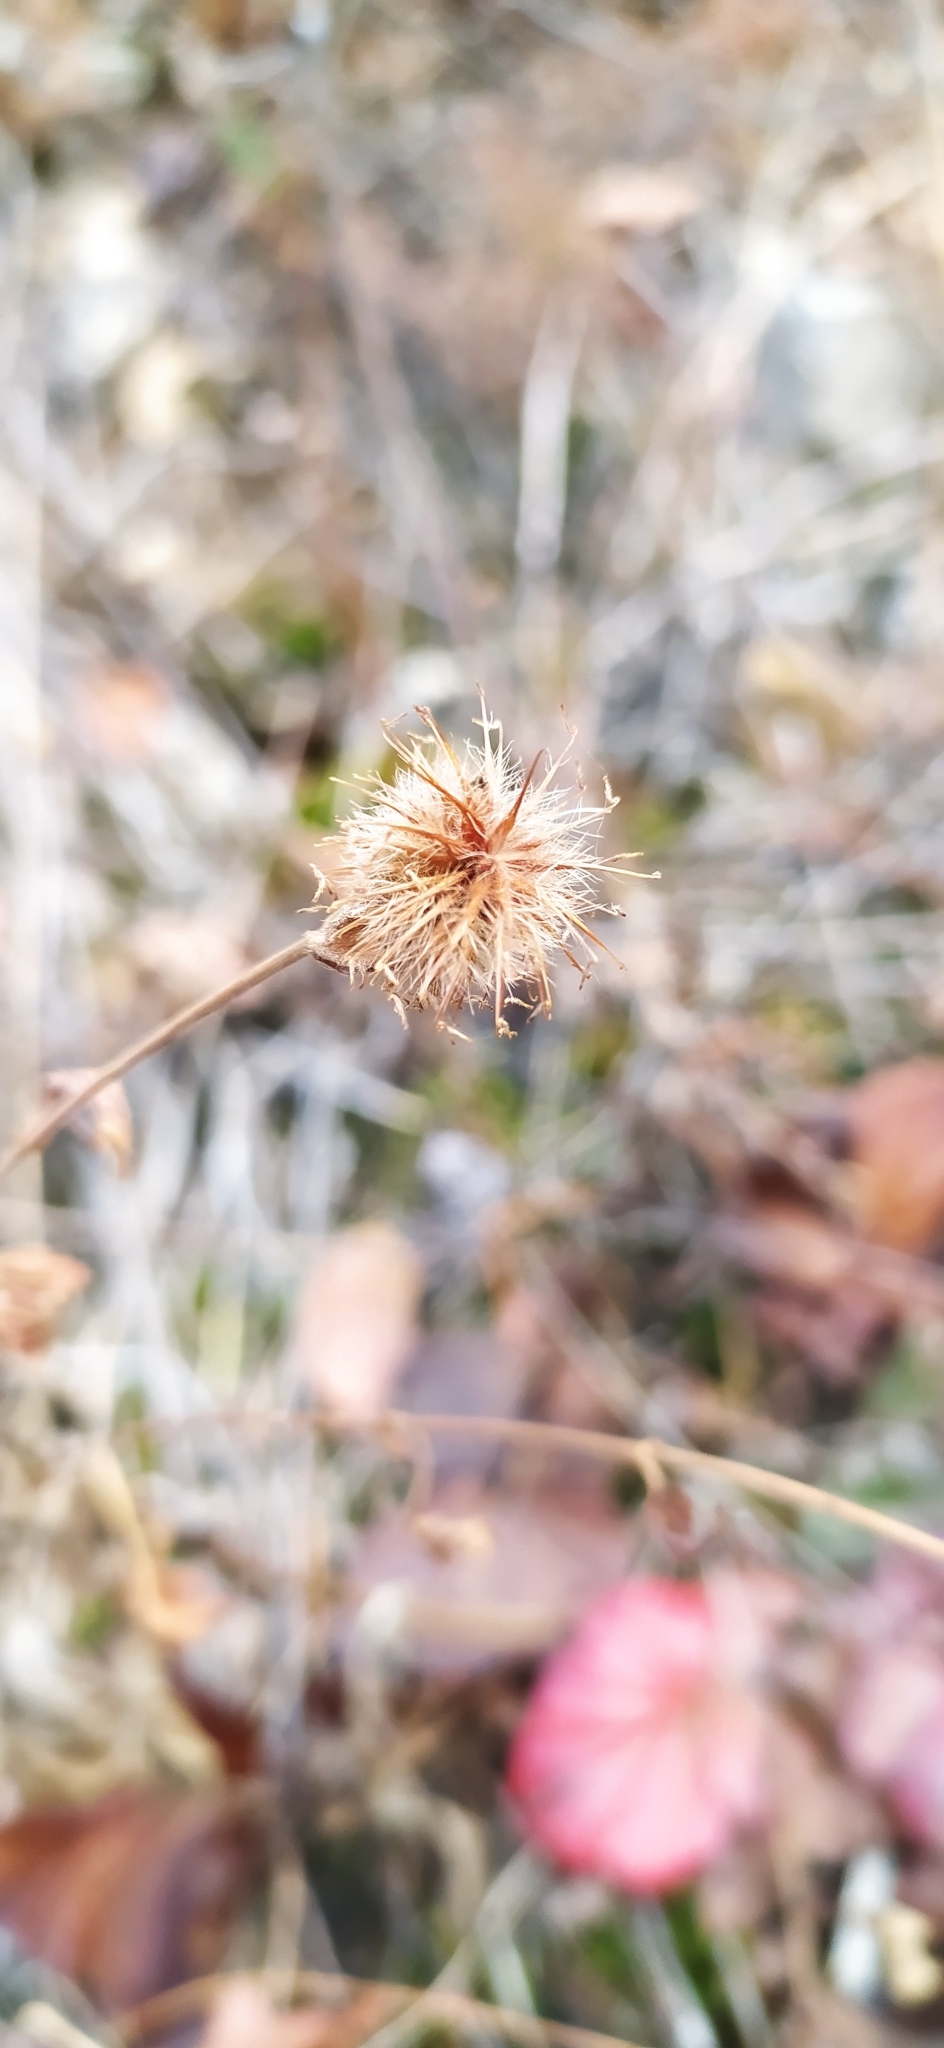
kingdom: Plantae
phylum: Tracheophyta
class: Magnoliopsida
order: Rosales
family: Rosaceae
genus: Geum
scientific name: Geum aleppicum
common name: Yellow avens
